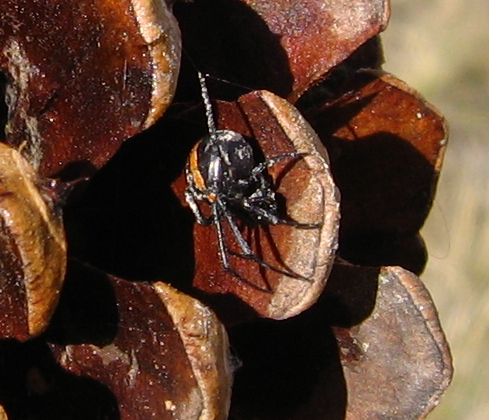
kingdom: Animalia
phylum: Arthropoda
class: Arachnida
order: Araneae
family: Theridiidae
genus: Latrodectus
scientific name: Latrodectus hesperus
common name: Western black widow
